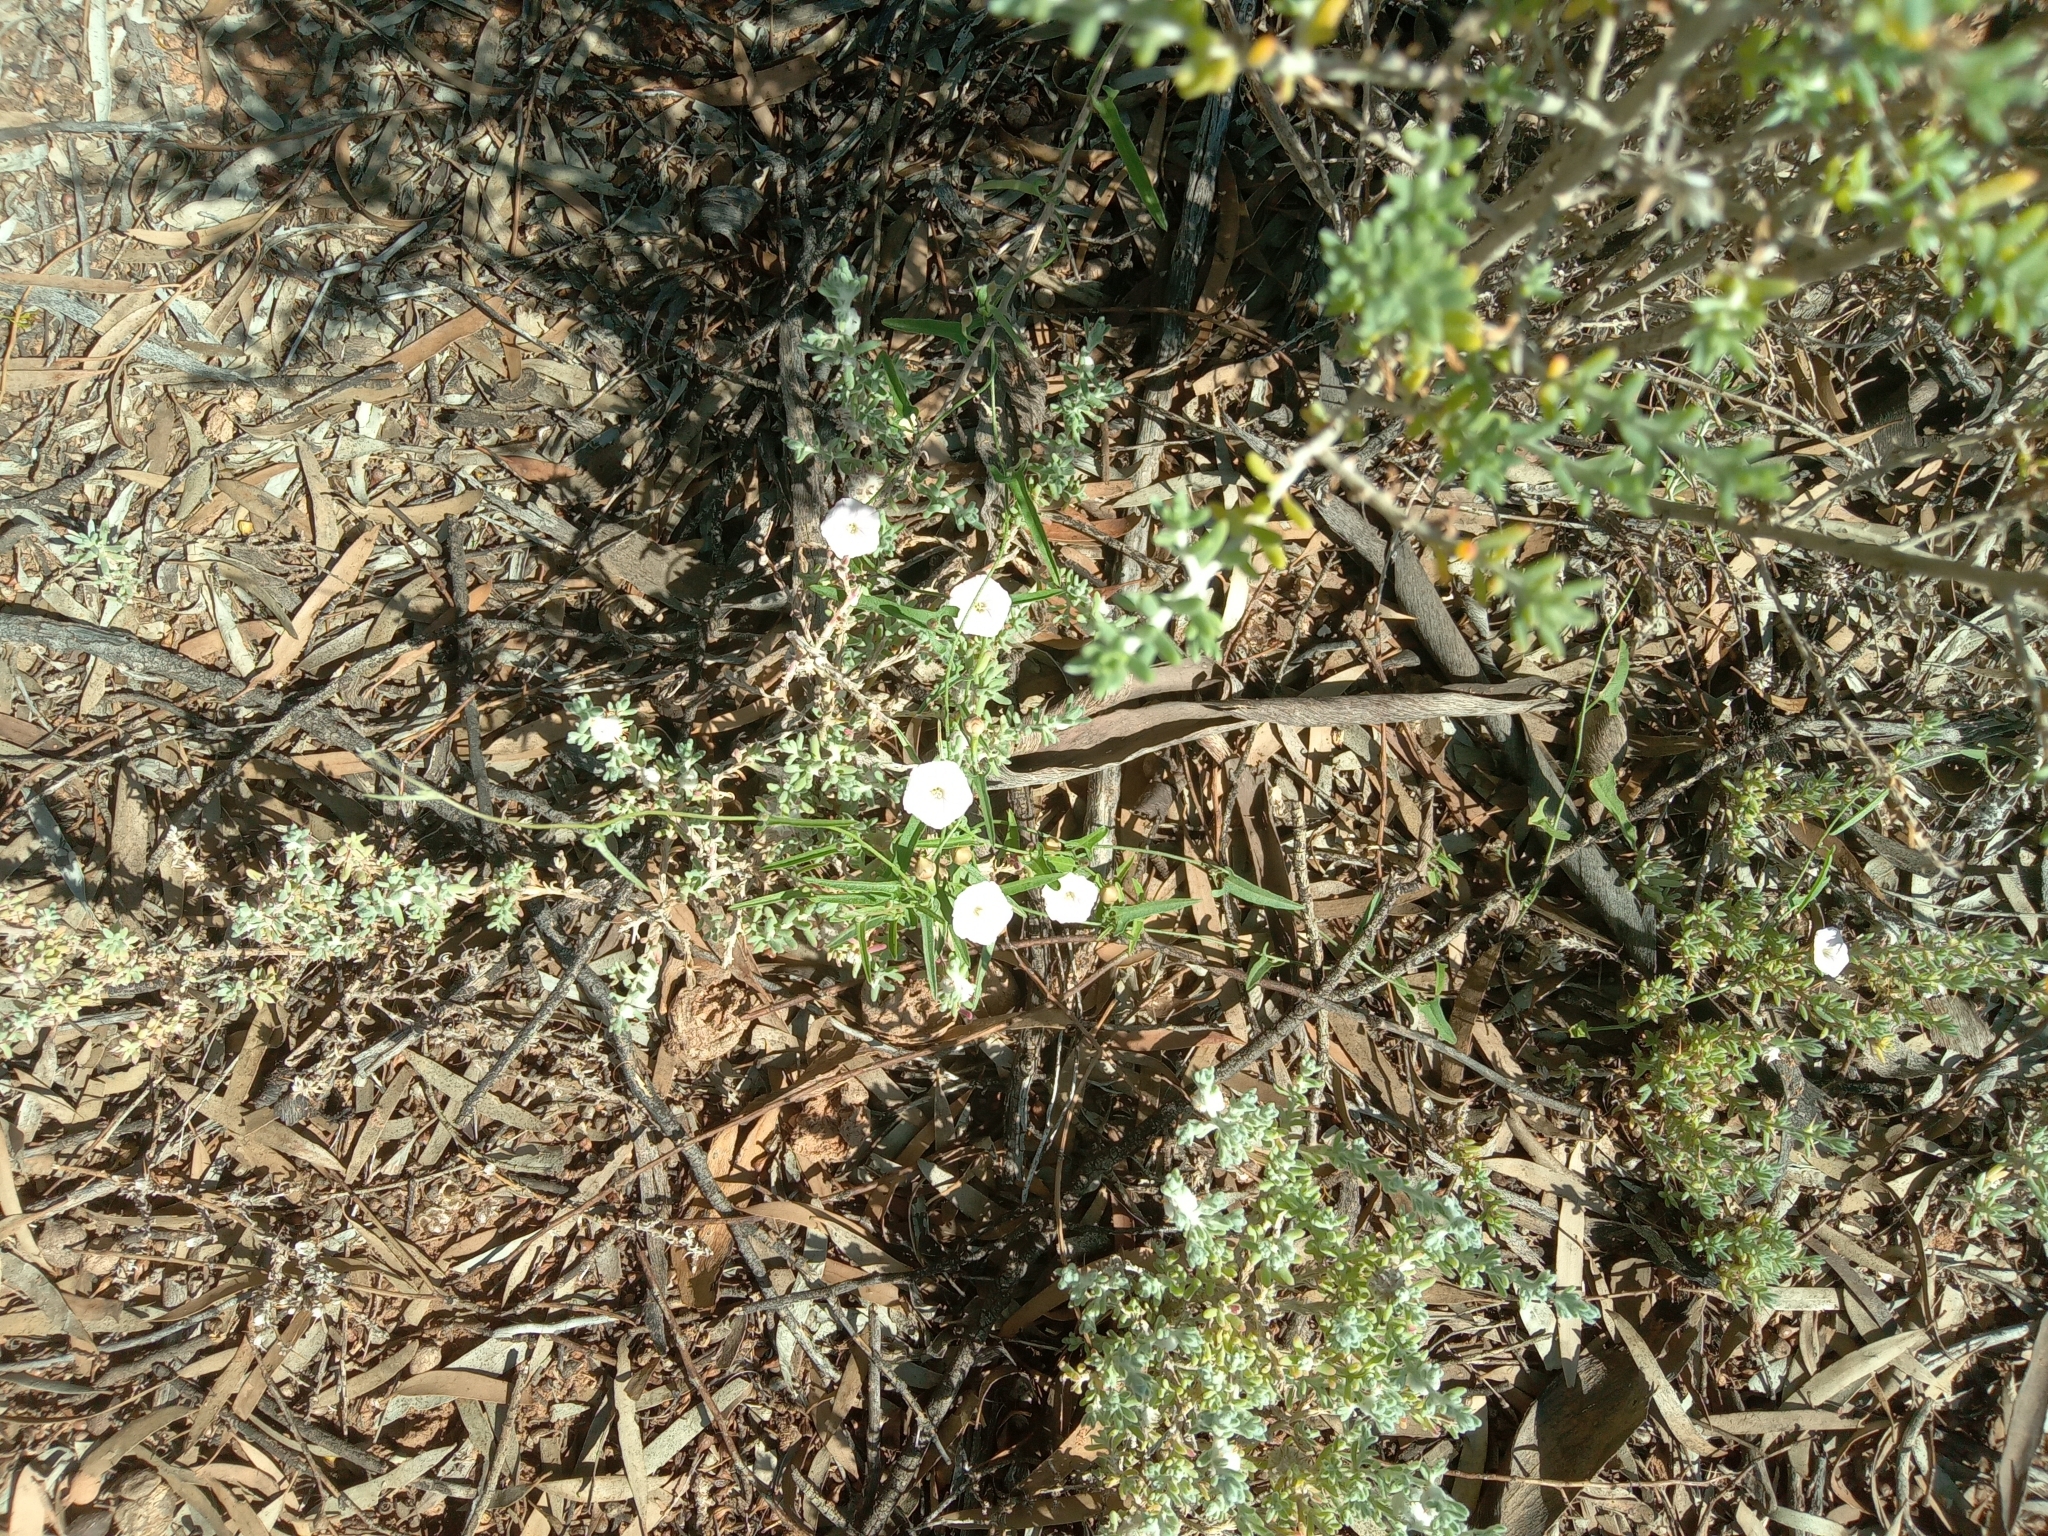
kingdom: Plantae
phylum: Tracheophyta
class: Magnoliopsida
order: Solanales
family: Convolvulaceae
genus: Convolvulus
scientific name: Convolvulus graminetinus
